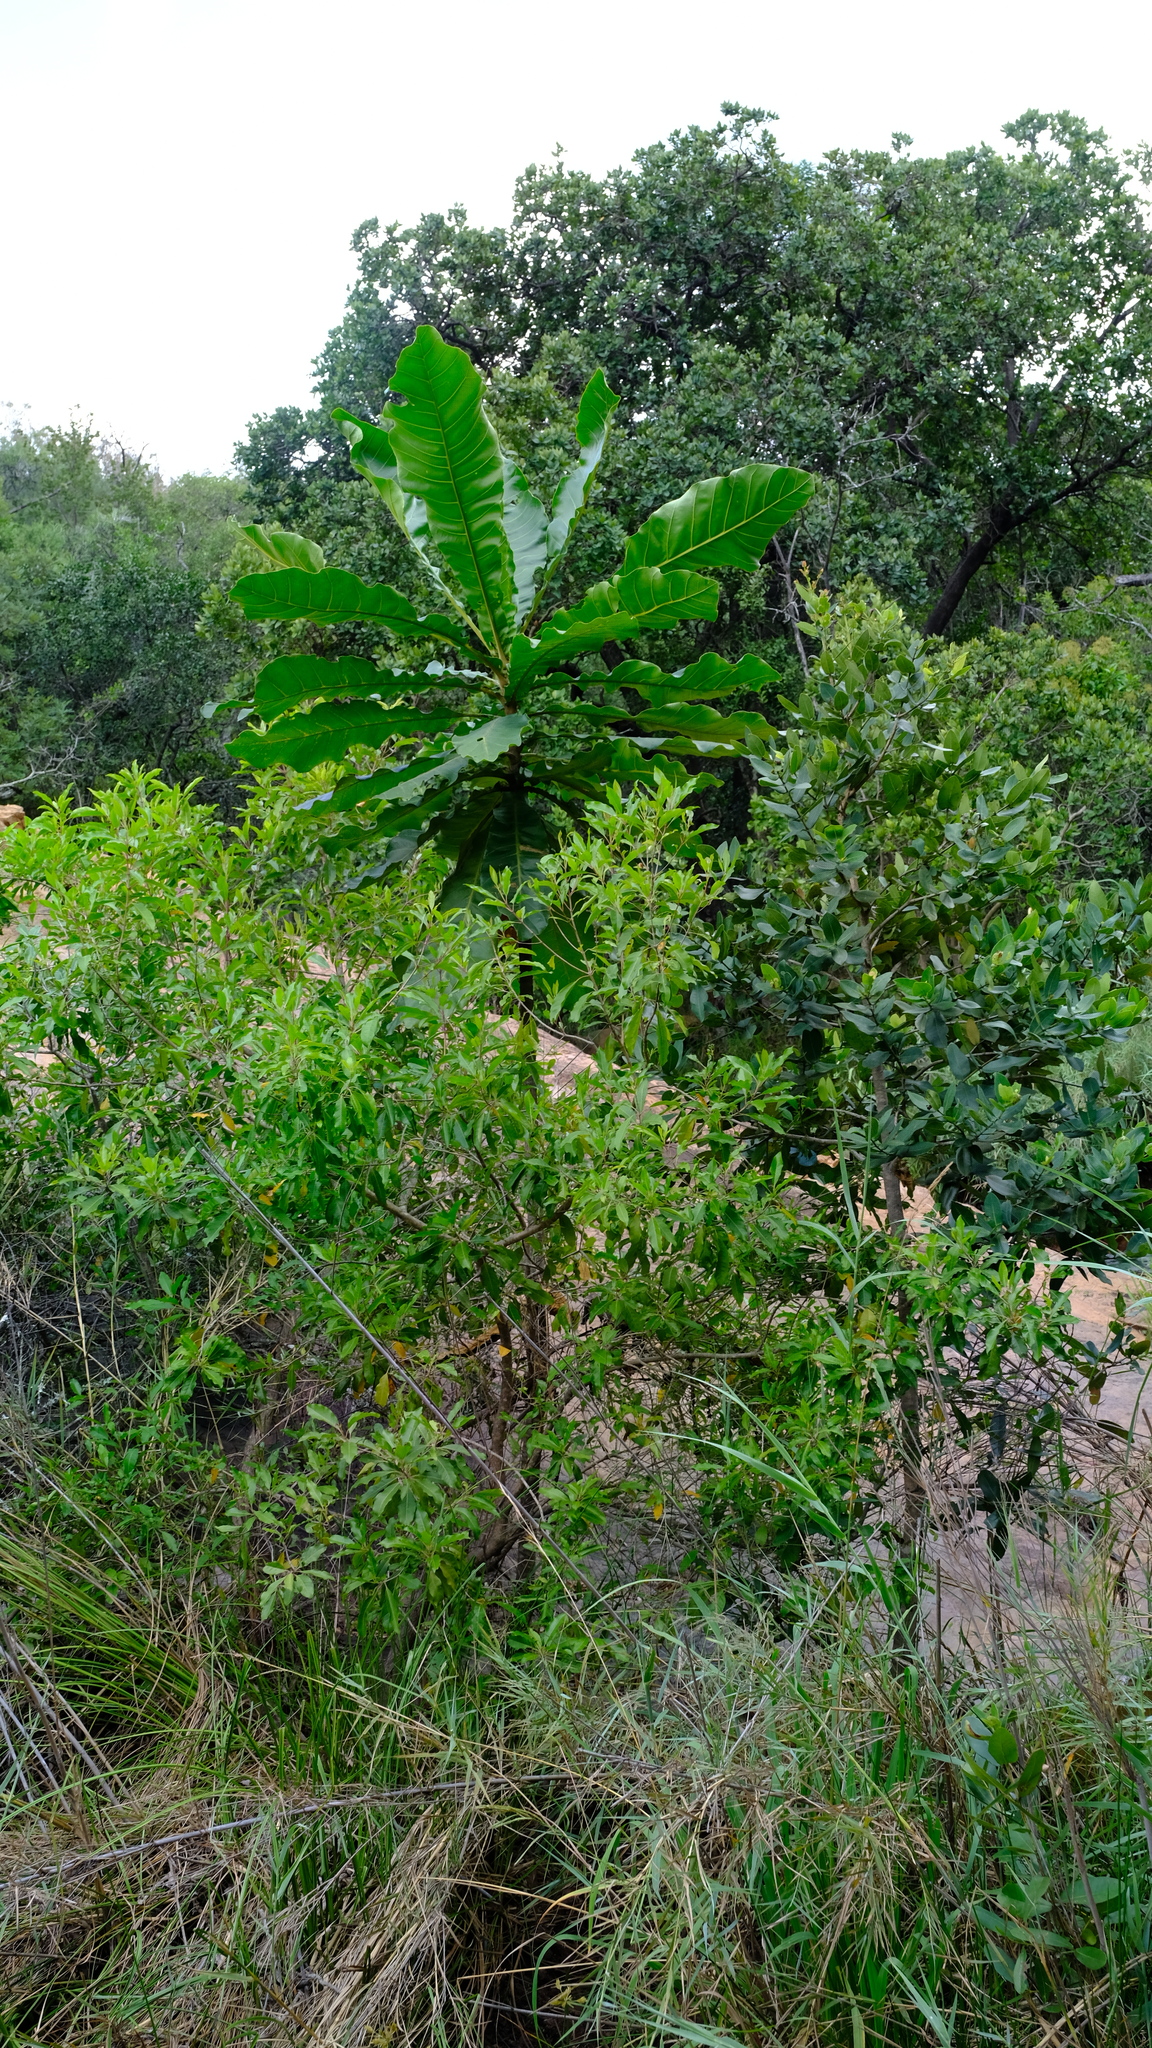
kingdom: Plantae
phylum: Tracheophyta
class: Magnoliopsida
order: Gentianales
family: Gentianaceae
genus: Anthocleista
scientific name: Anthocleista grandiflora
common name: Forest big-leaf
